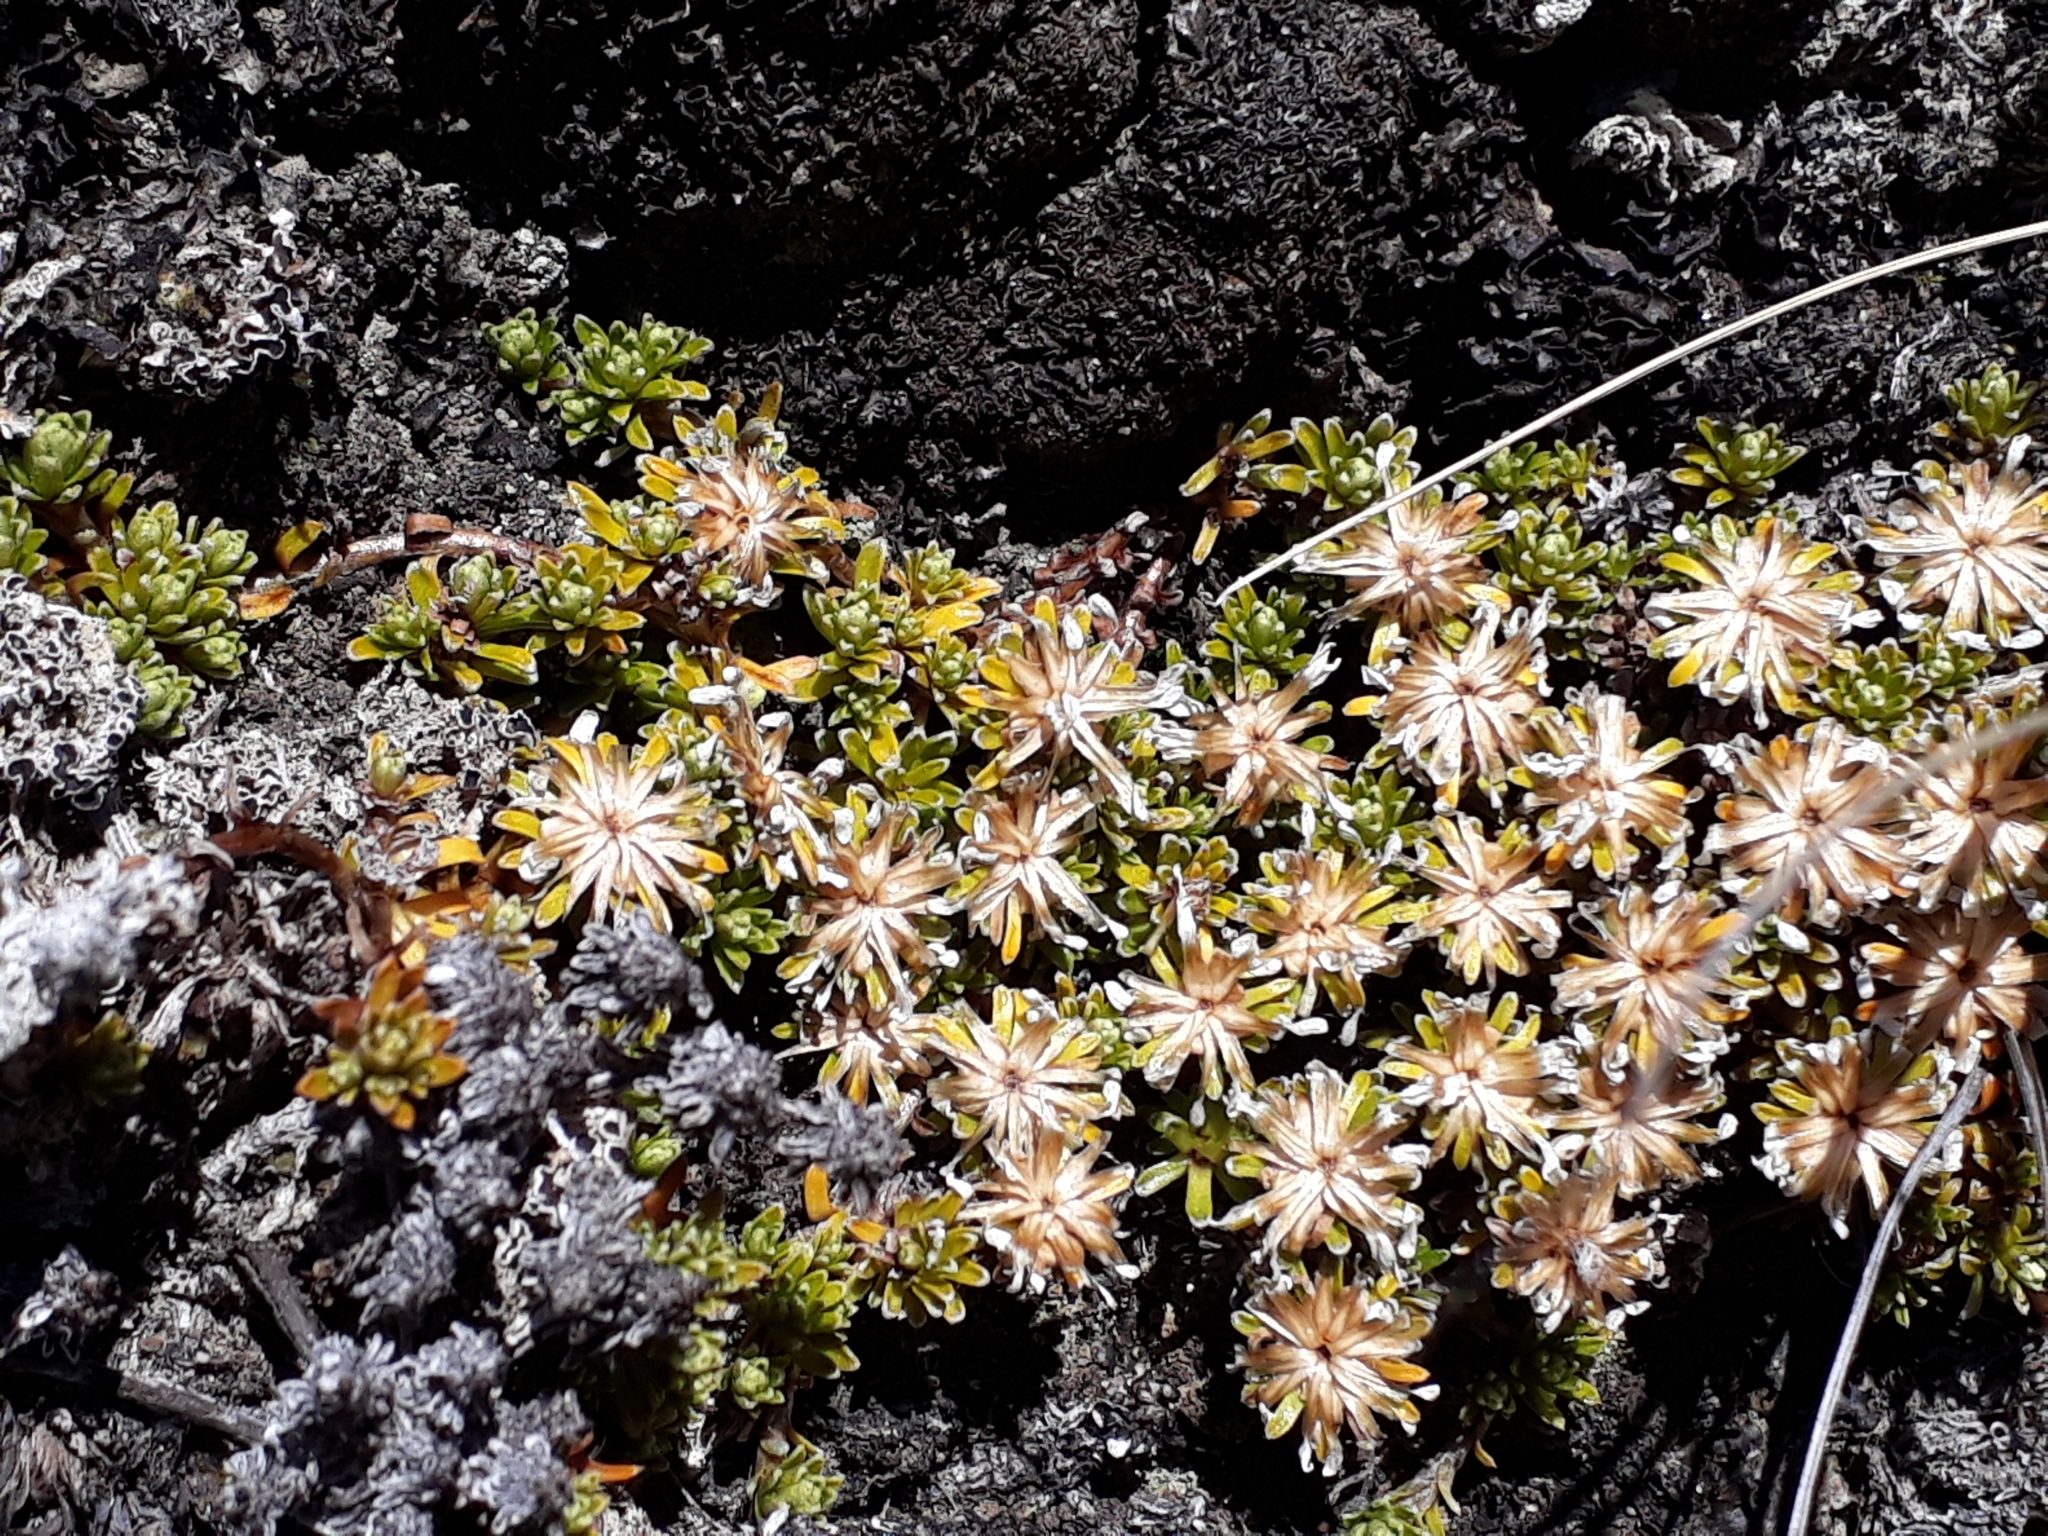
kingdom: Plantae
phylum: Tracheophyta
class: Magnoliopsida
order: Asterales
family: Asteraceae
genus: Raoulia
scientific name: Raoulia subsericea
